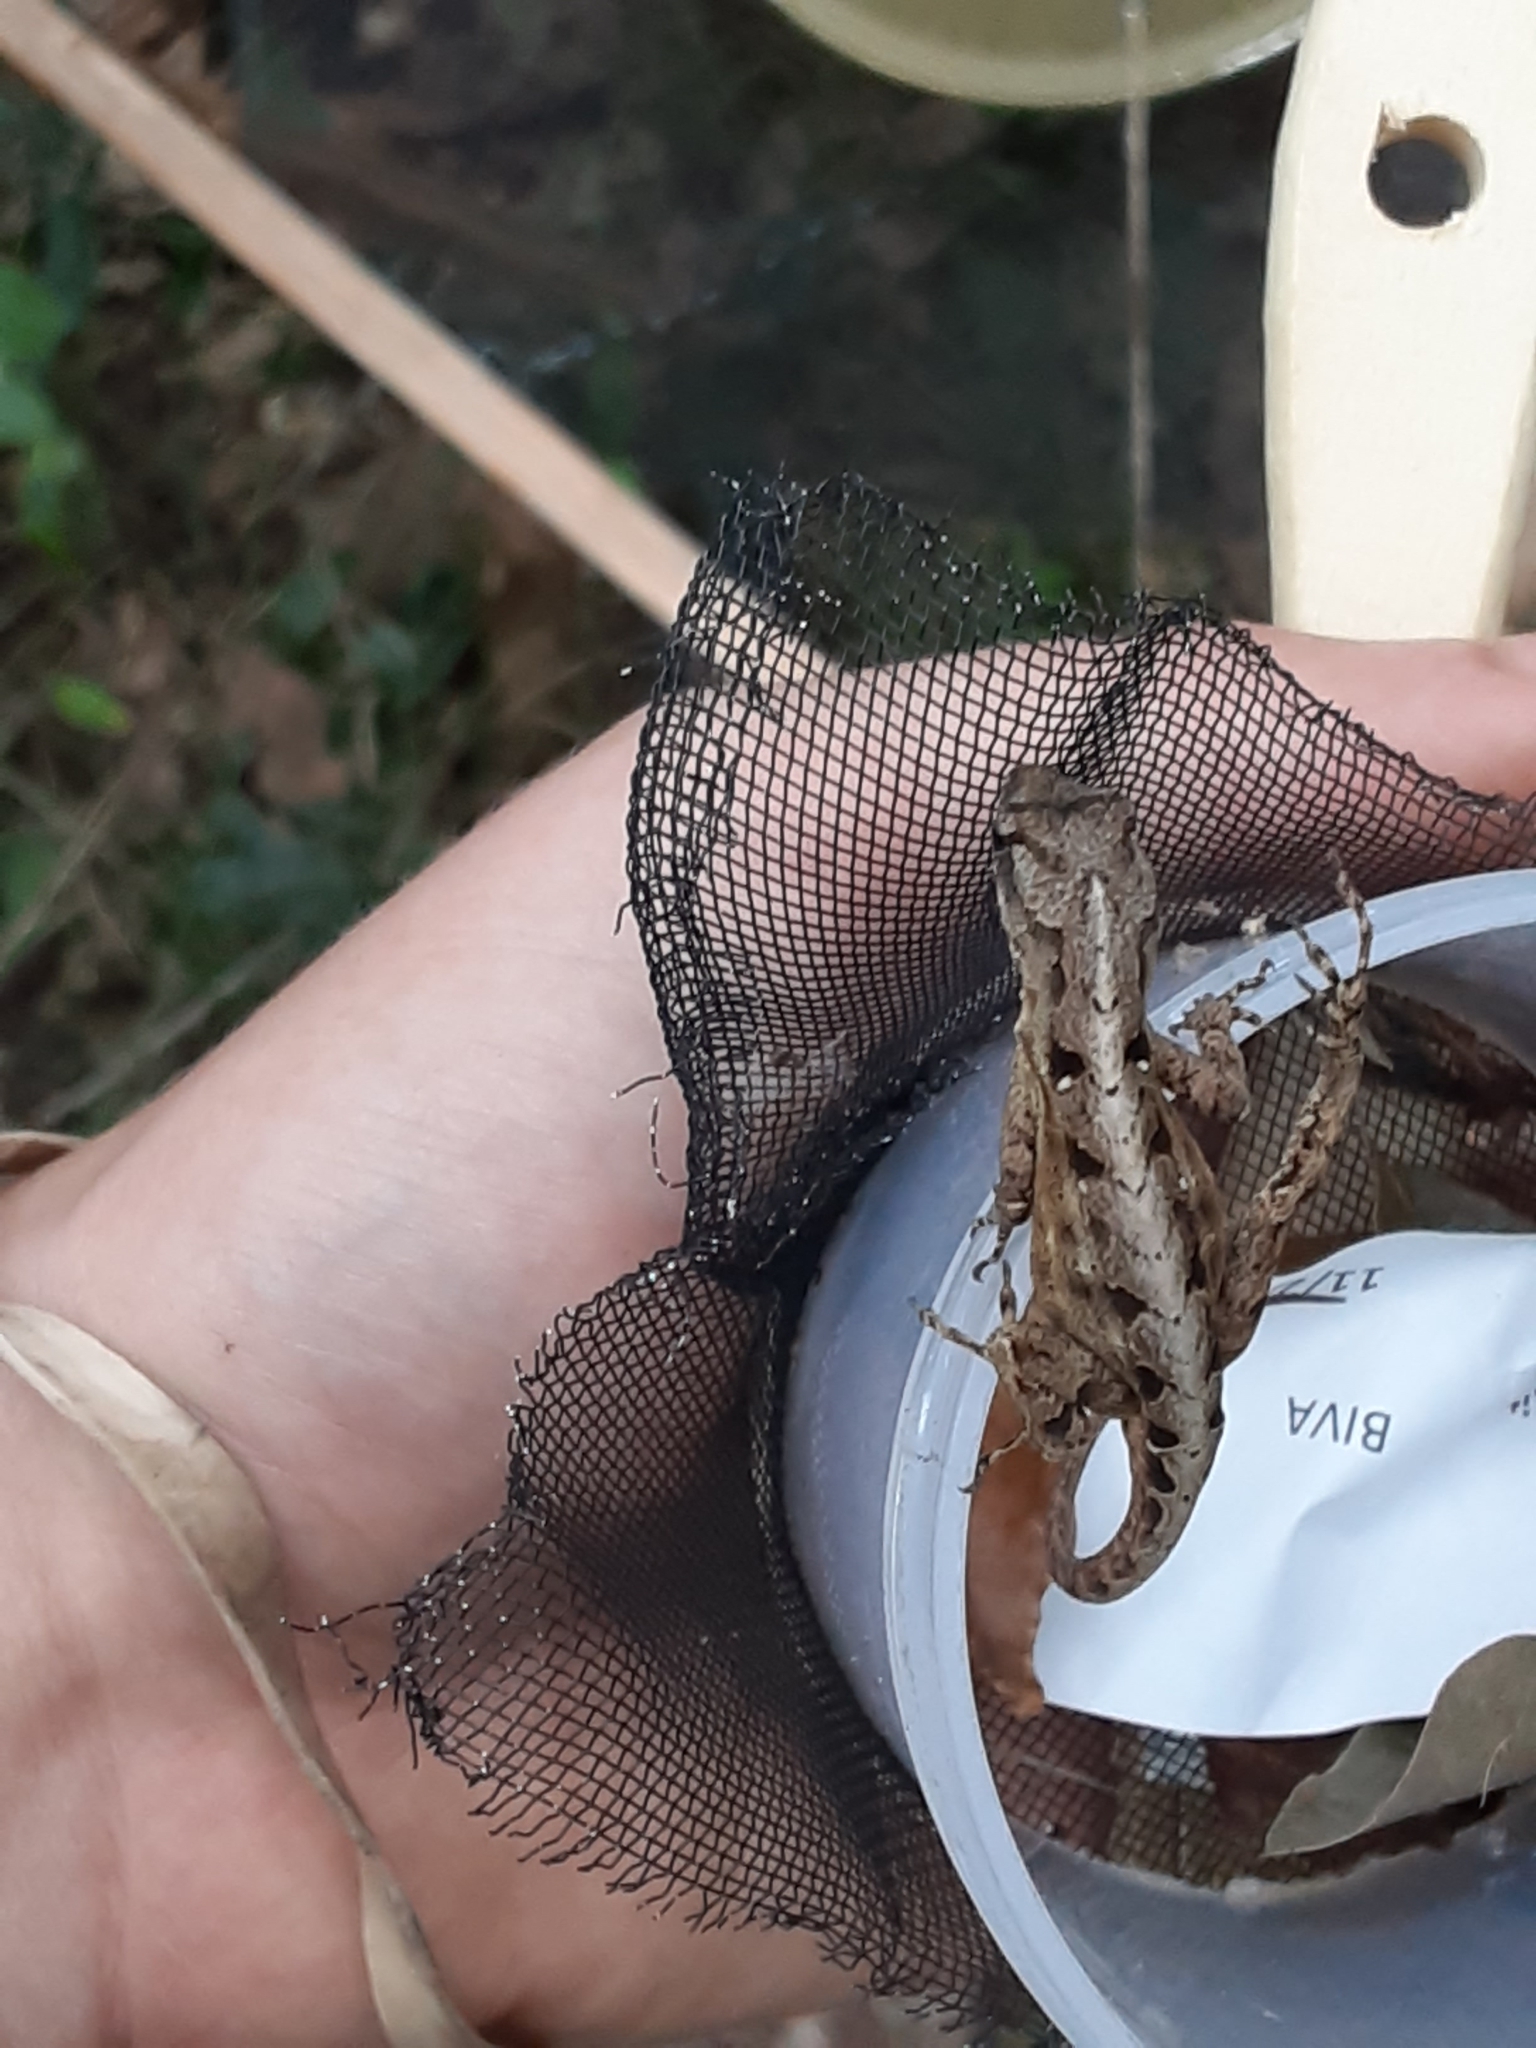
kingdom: Animalia
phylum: Chordata
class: Squamata
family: Dactyloidae
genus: Anolis
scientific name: Anolis sagrei
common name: Brown anole
